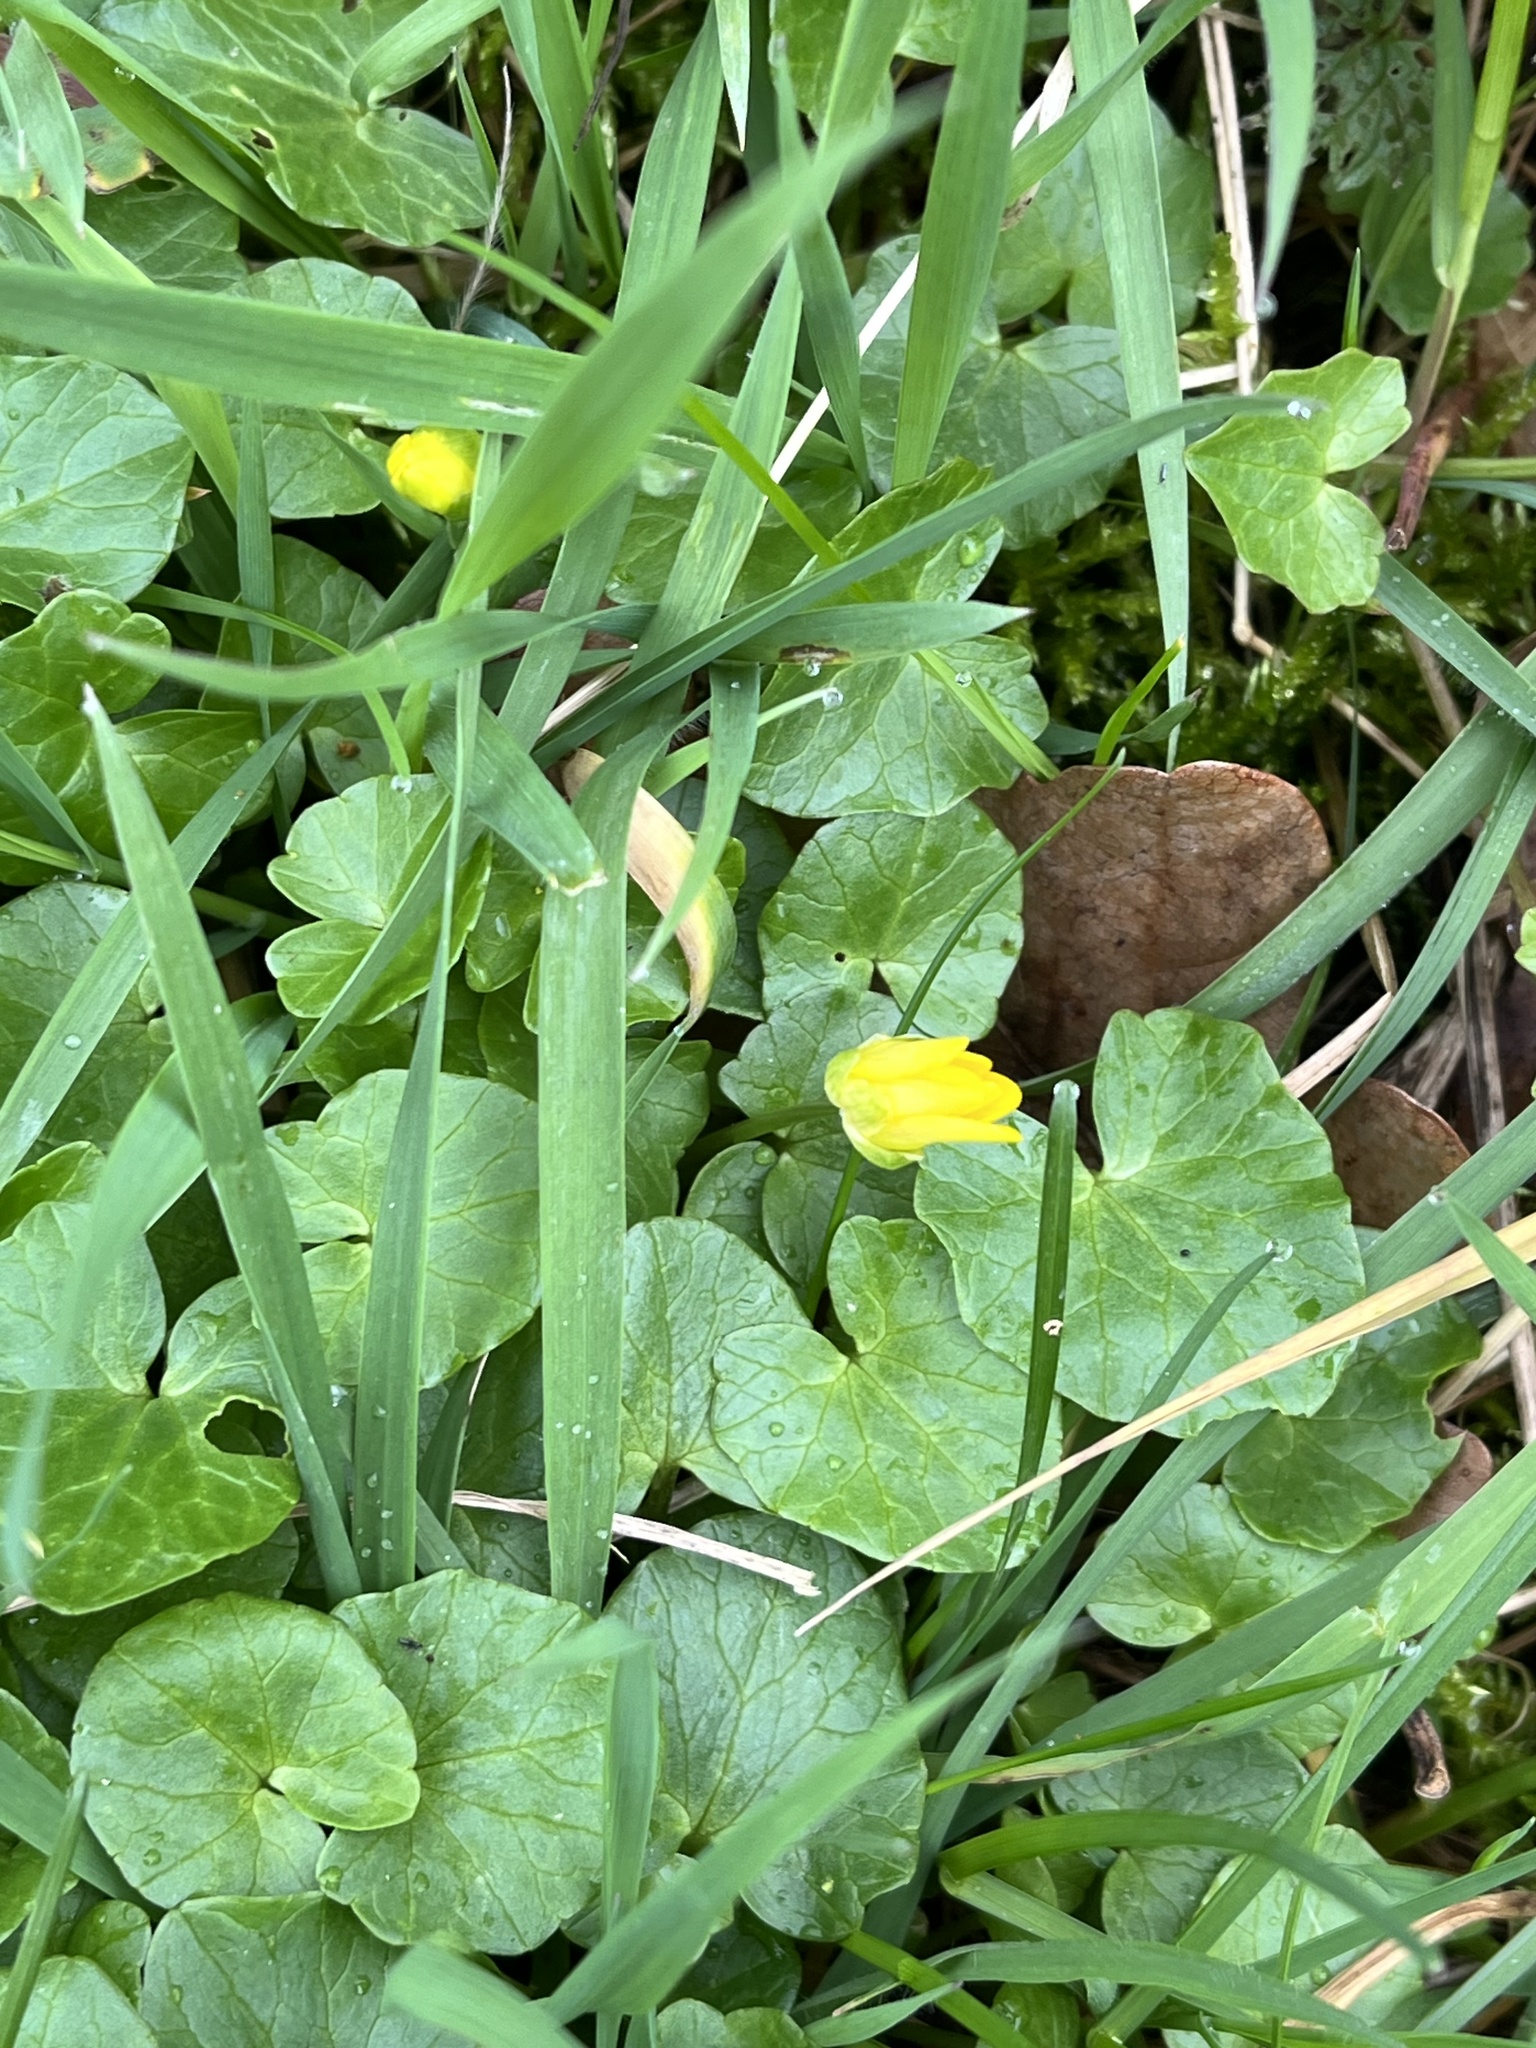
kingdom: Plantae
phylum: Tracheophyta
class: Magnoliopsida
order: Ranunculales
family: Ranunculaceae
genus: Ficaria
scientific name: Ficaria verna
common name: Lesser celandine
